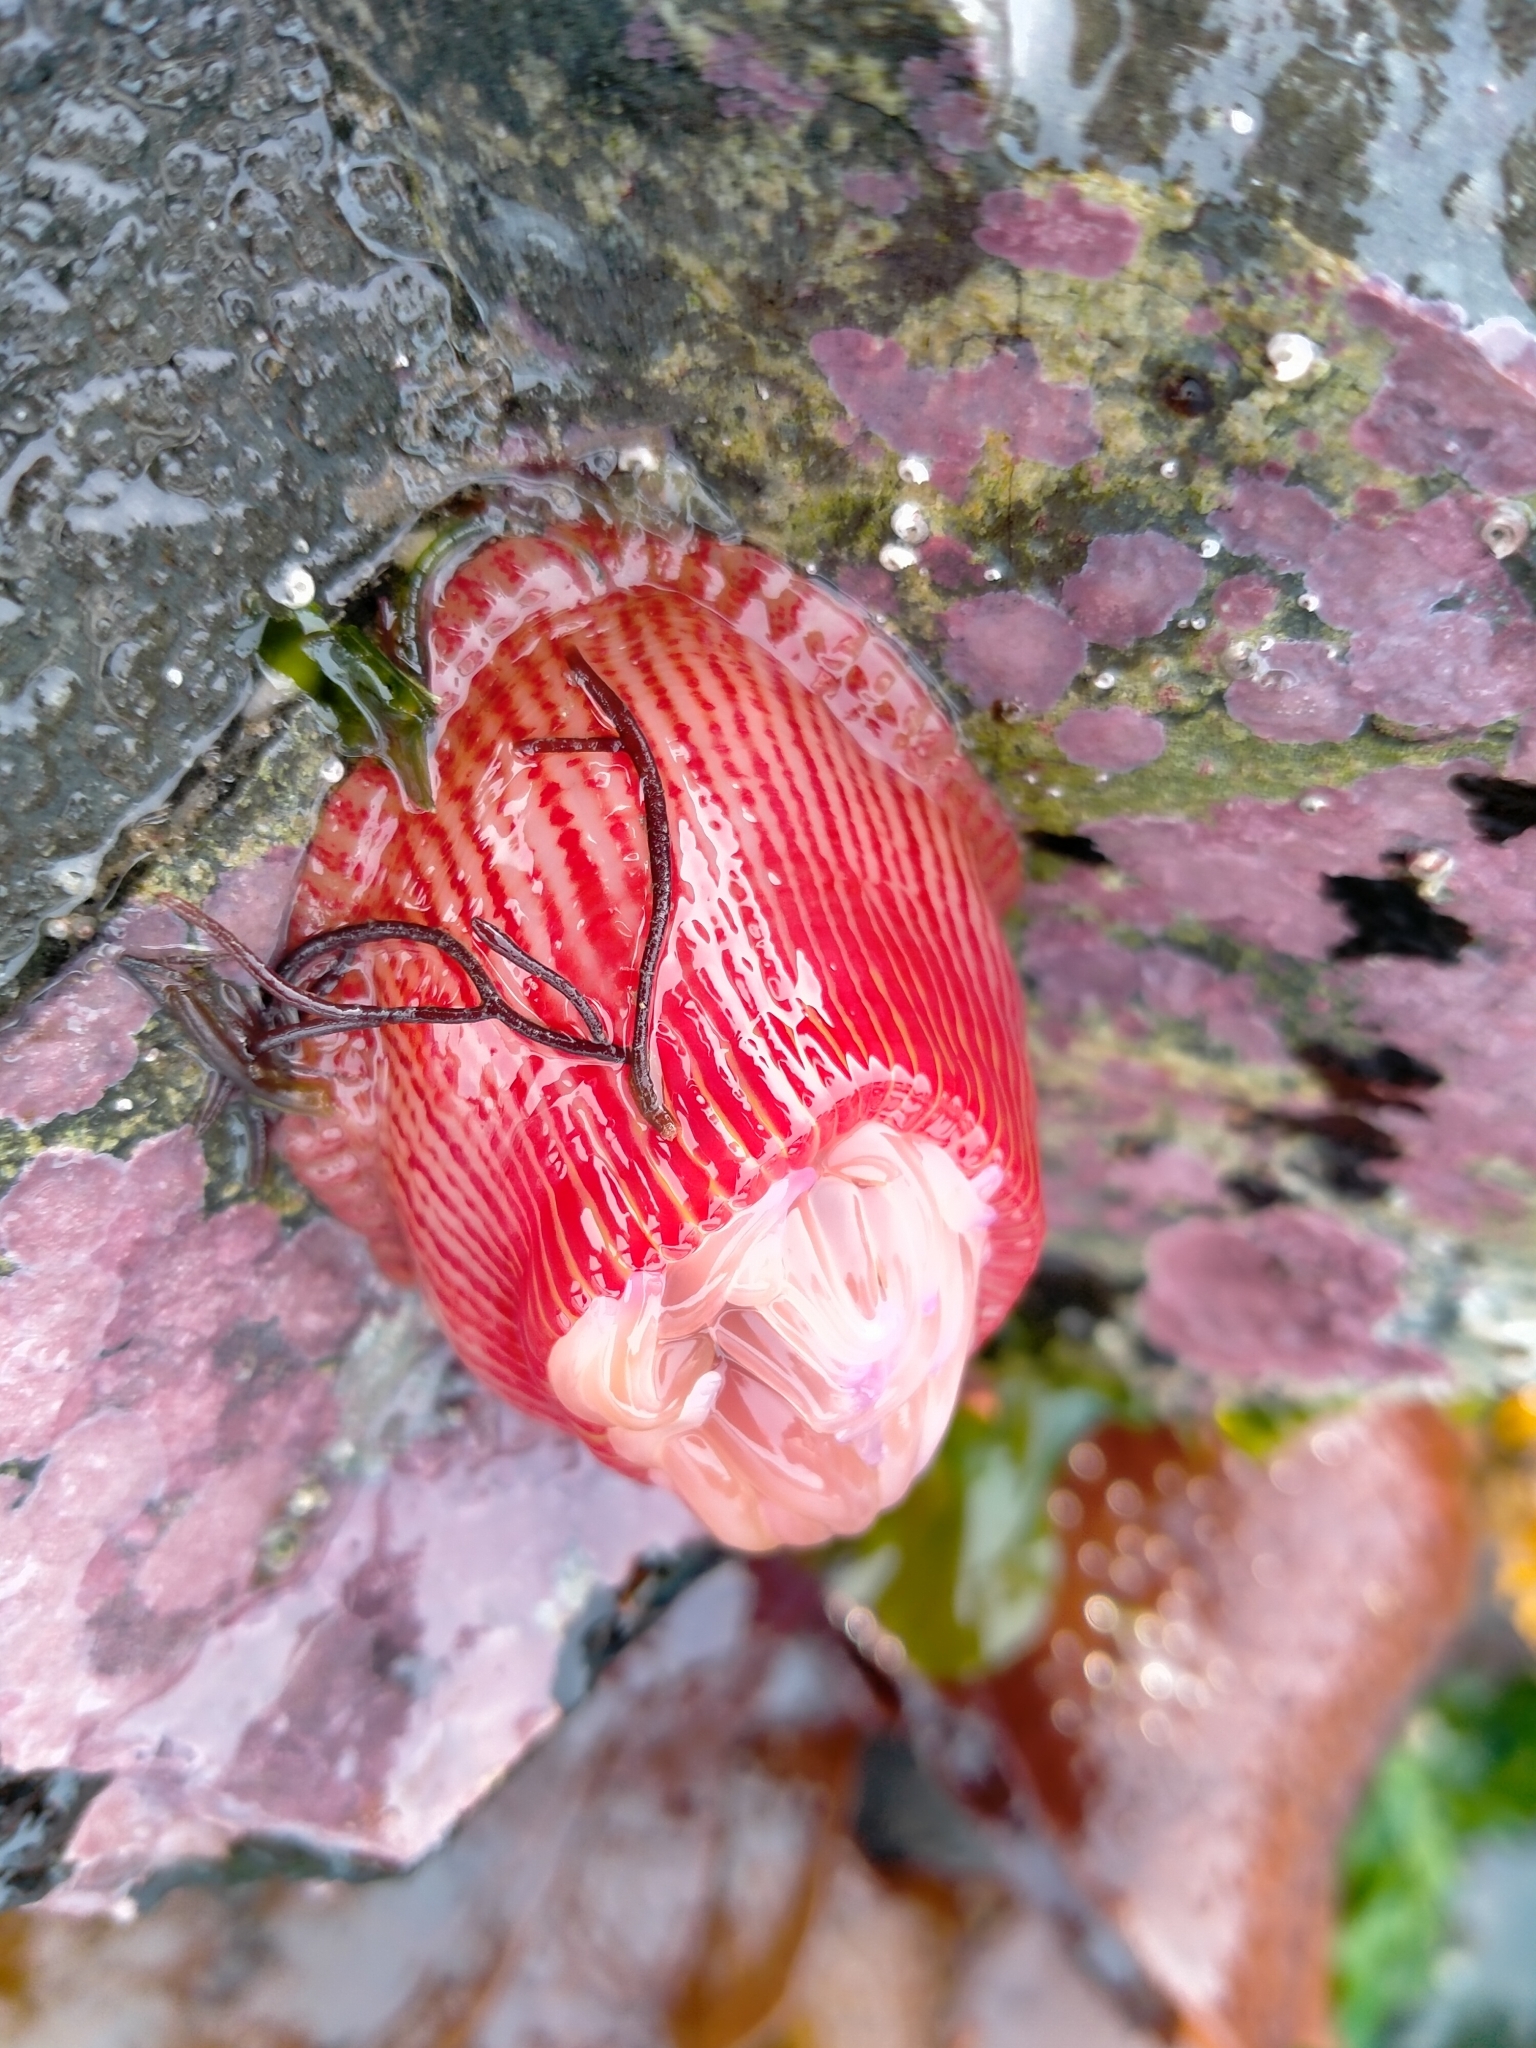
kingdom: Animalia
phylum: Cnidaria
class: Anthozoa
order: Actiniaria
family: Actiniidae
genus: Epiactis
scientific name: Epiactis thompsoni
